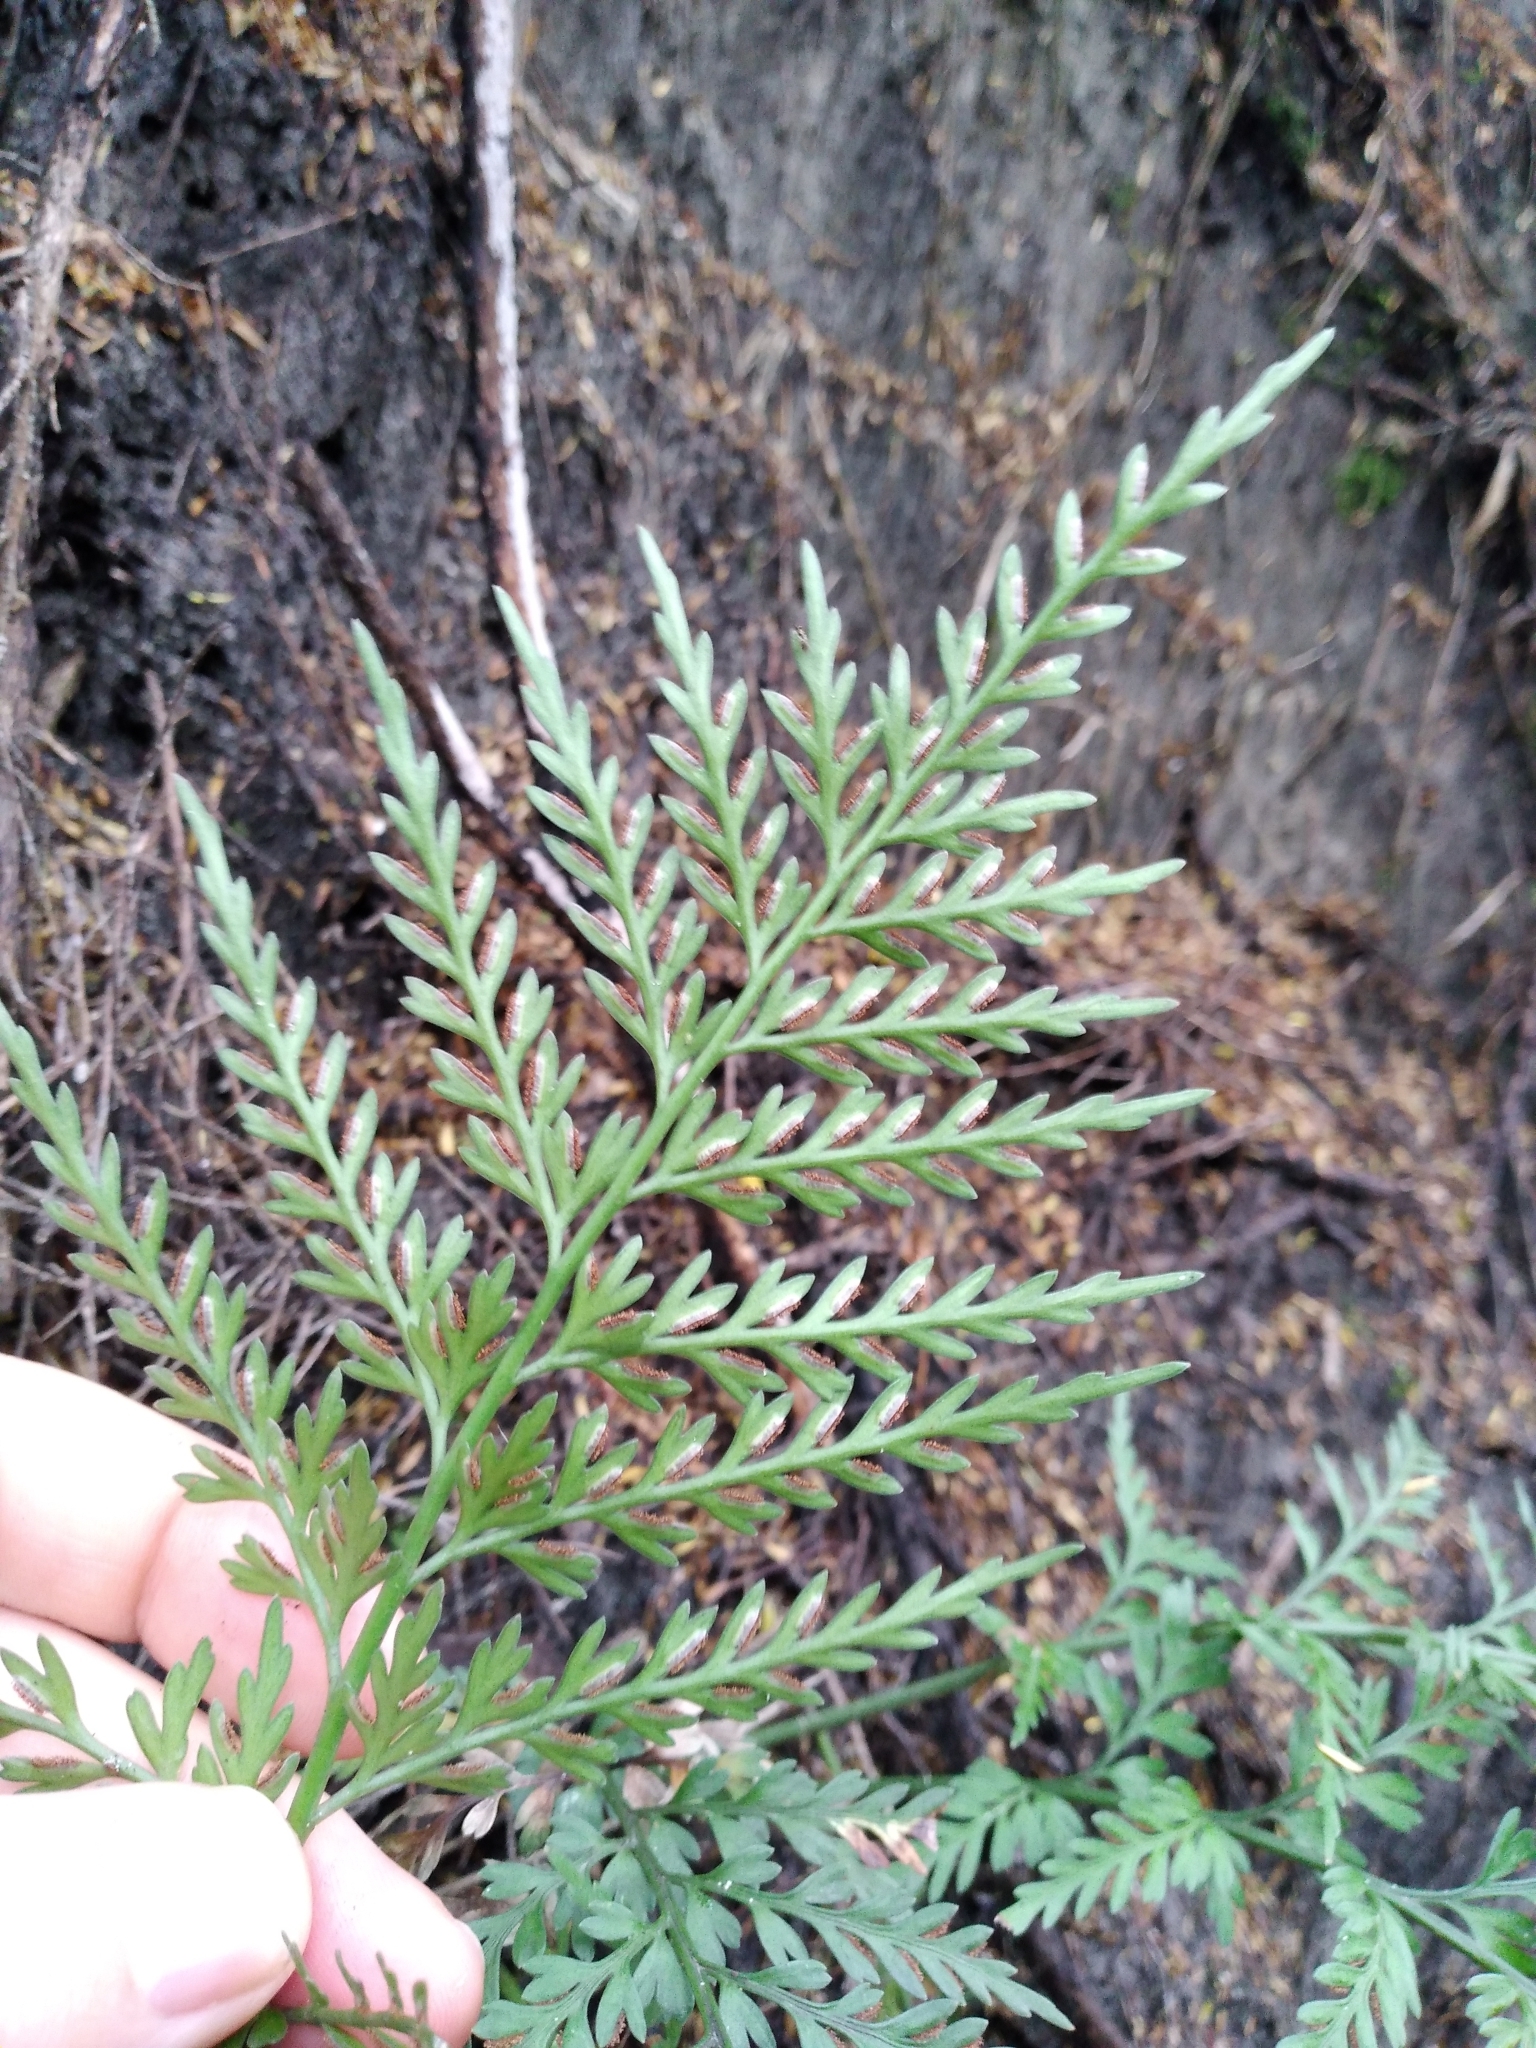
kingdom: Plantae
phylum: Tracheophyta
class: Polypodiopsida
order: Polypodiales
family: Aspleniaceae
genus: Asplenium
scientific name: Asplenium appendiculatum
